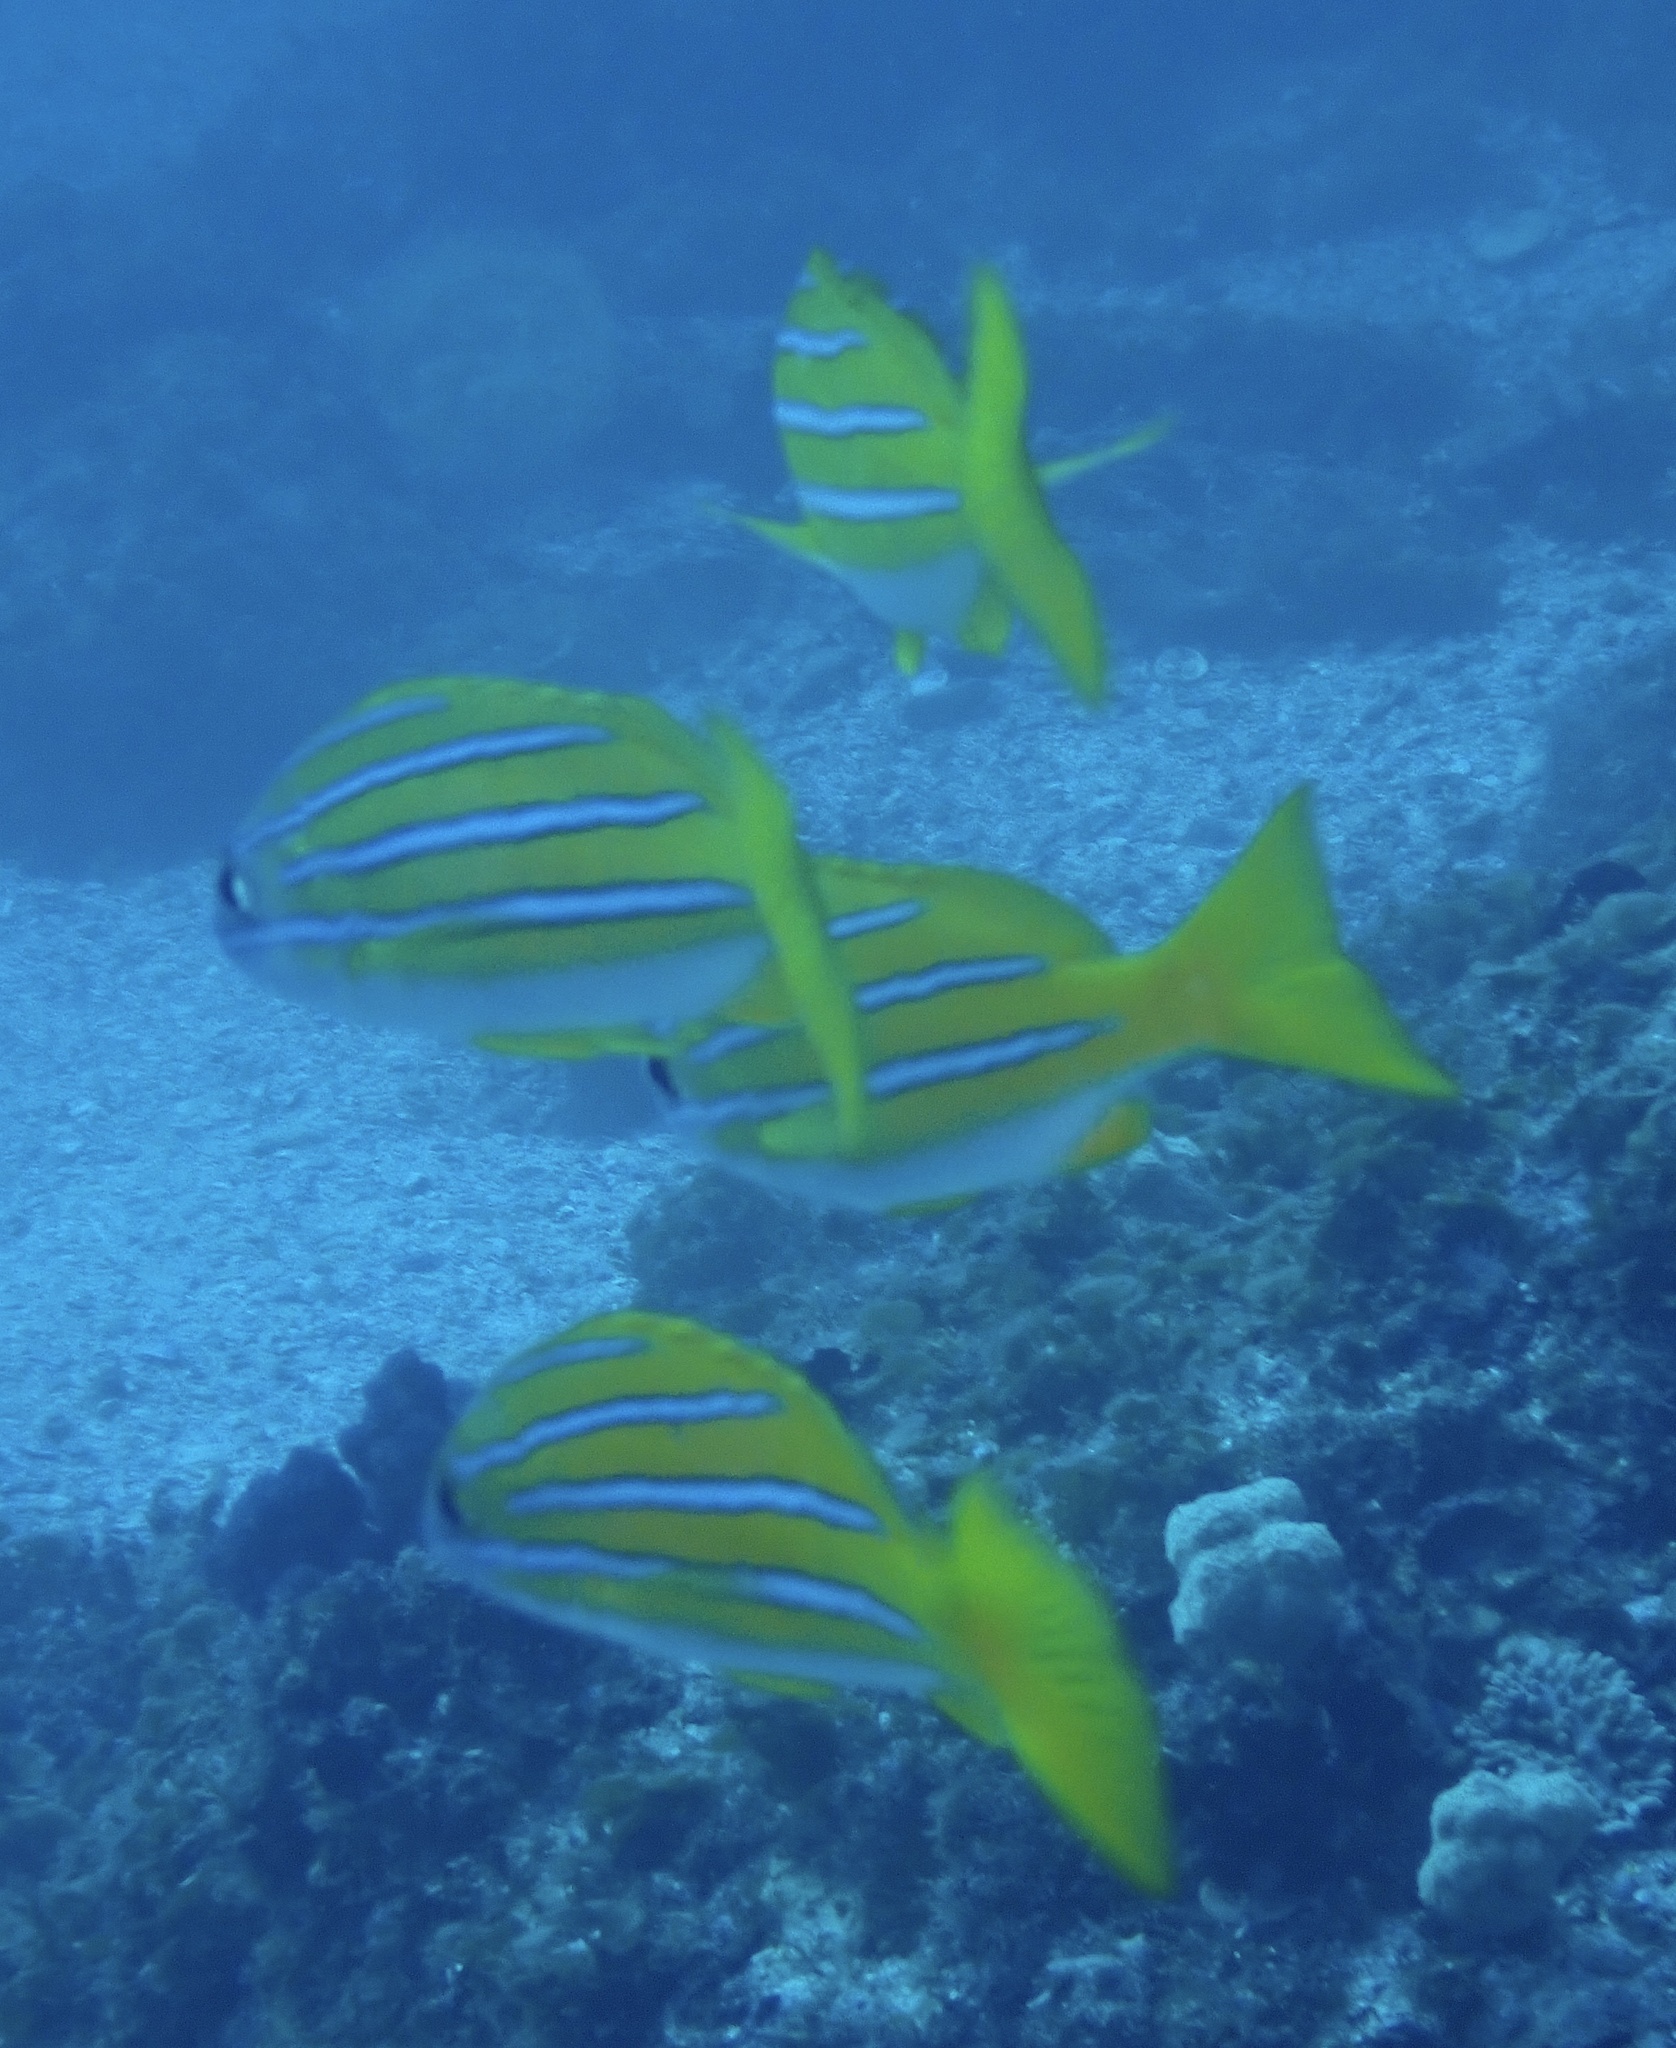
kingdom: Animalia
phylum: Chordata
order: Perciformes
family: Lutjanidae
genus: Lutjanus
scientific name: Lutjanus kasmira
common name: Common bluestripe snapper
